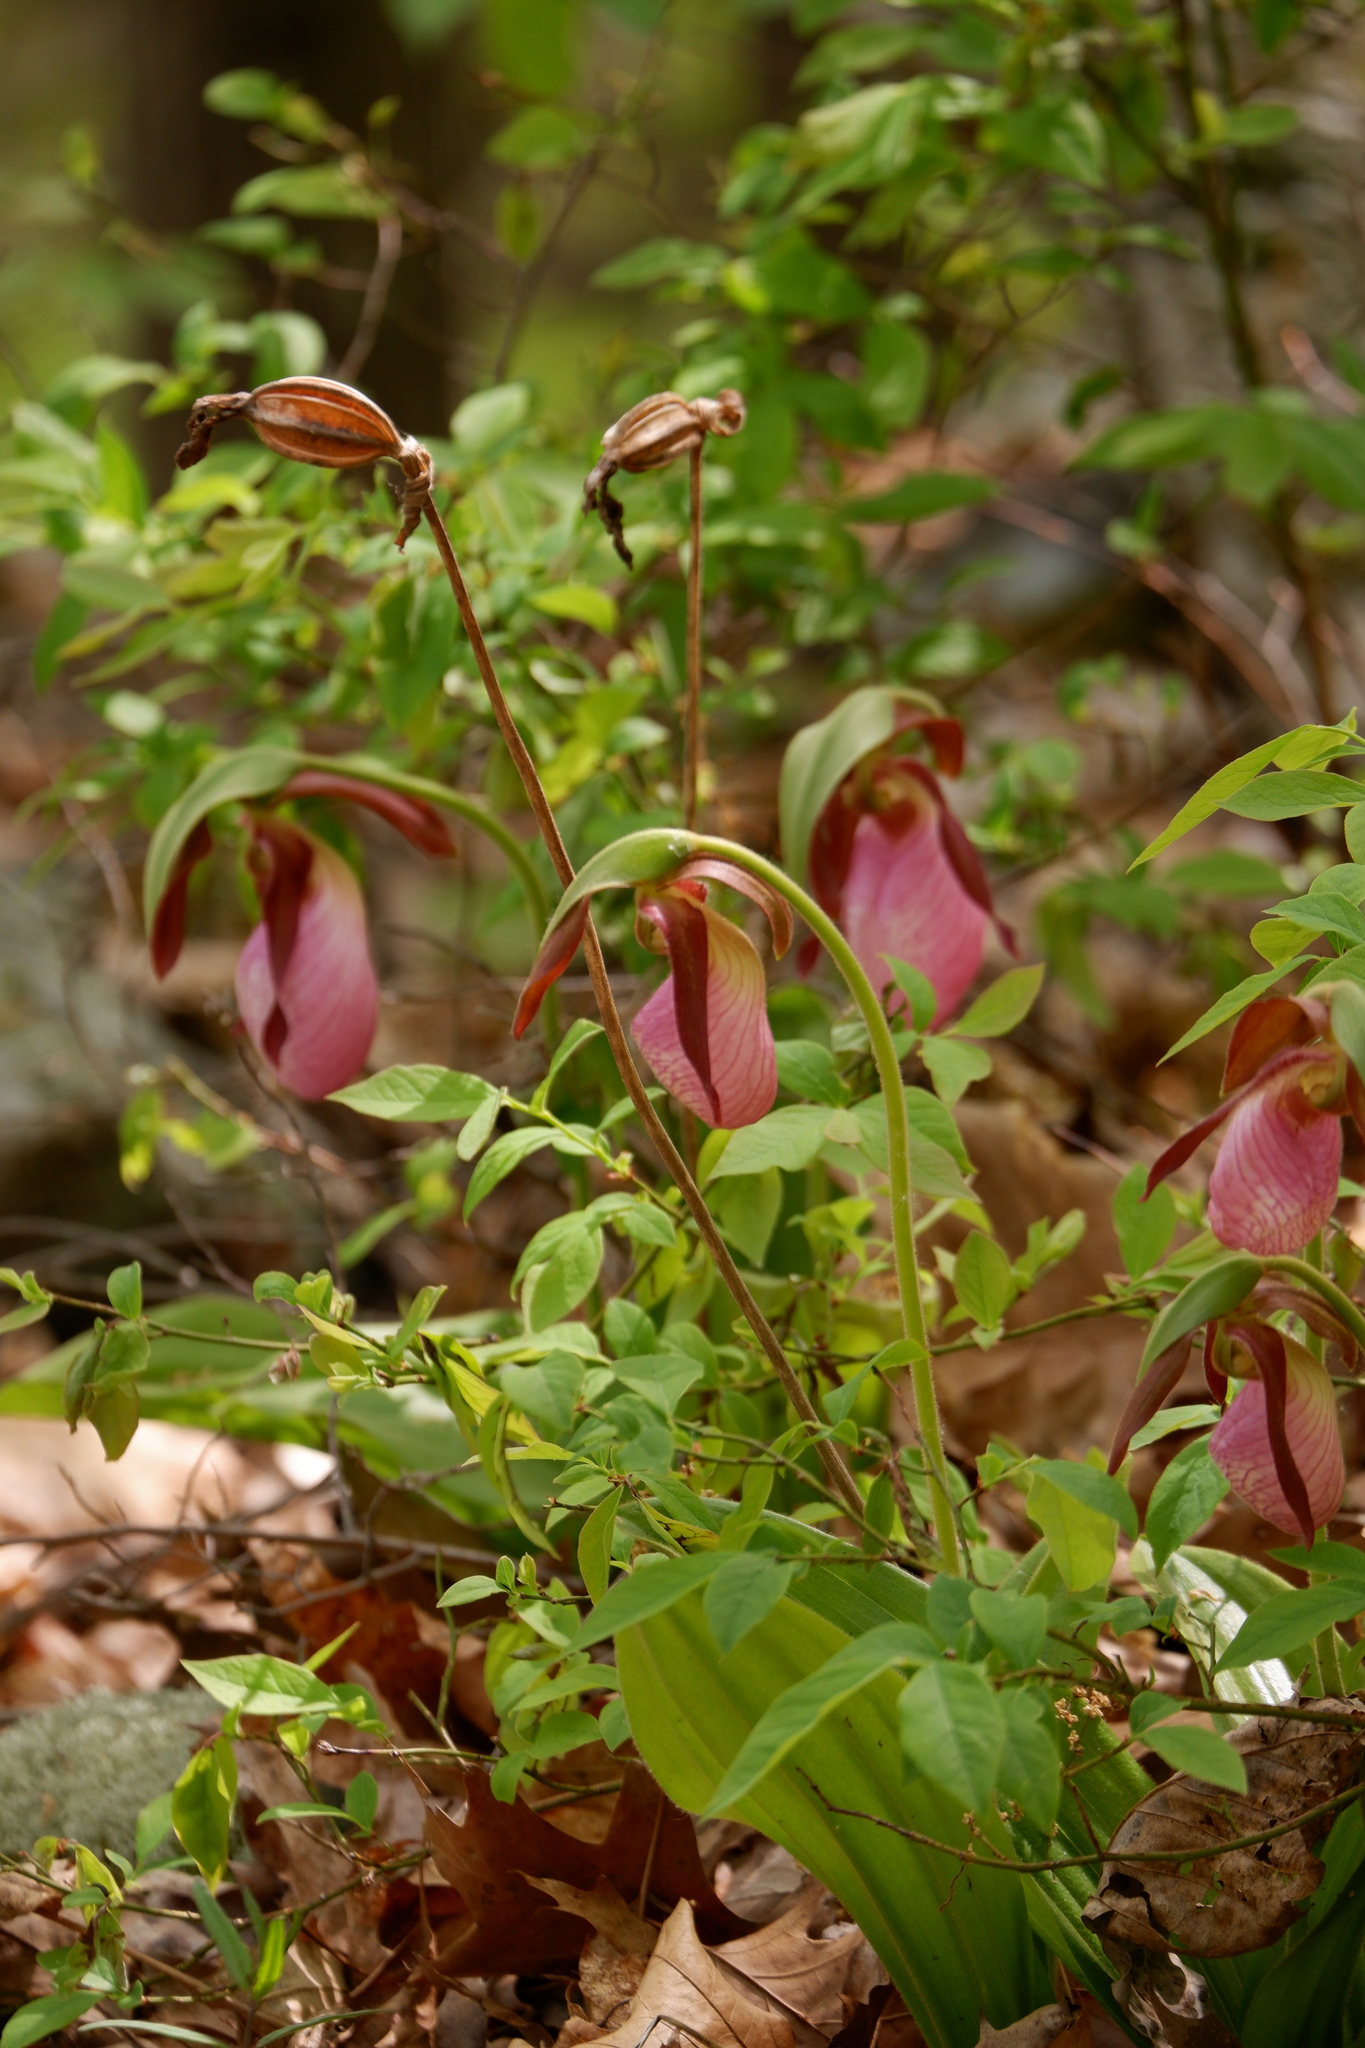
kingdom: Plantae
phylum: Tracheophyta
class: Liliopsida
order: Asparagales
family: Orchidaceae
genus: Cypripedium
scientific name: Cypripedium acaule
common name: Pink lady's-slipper
